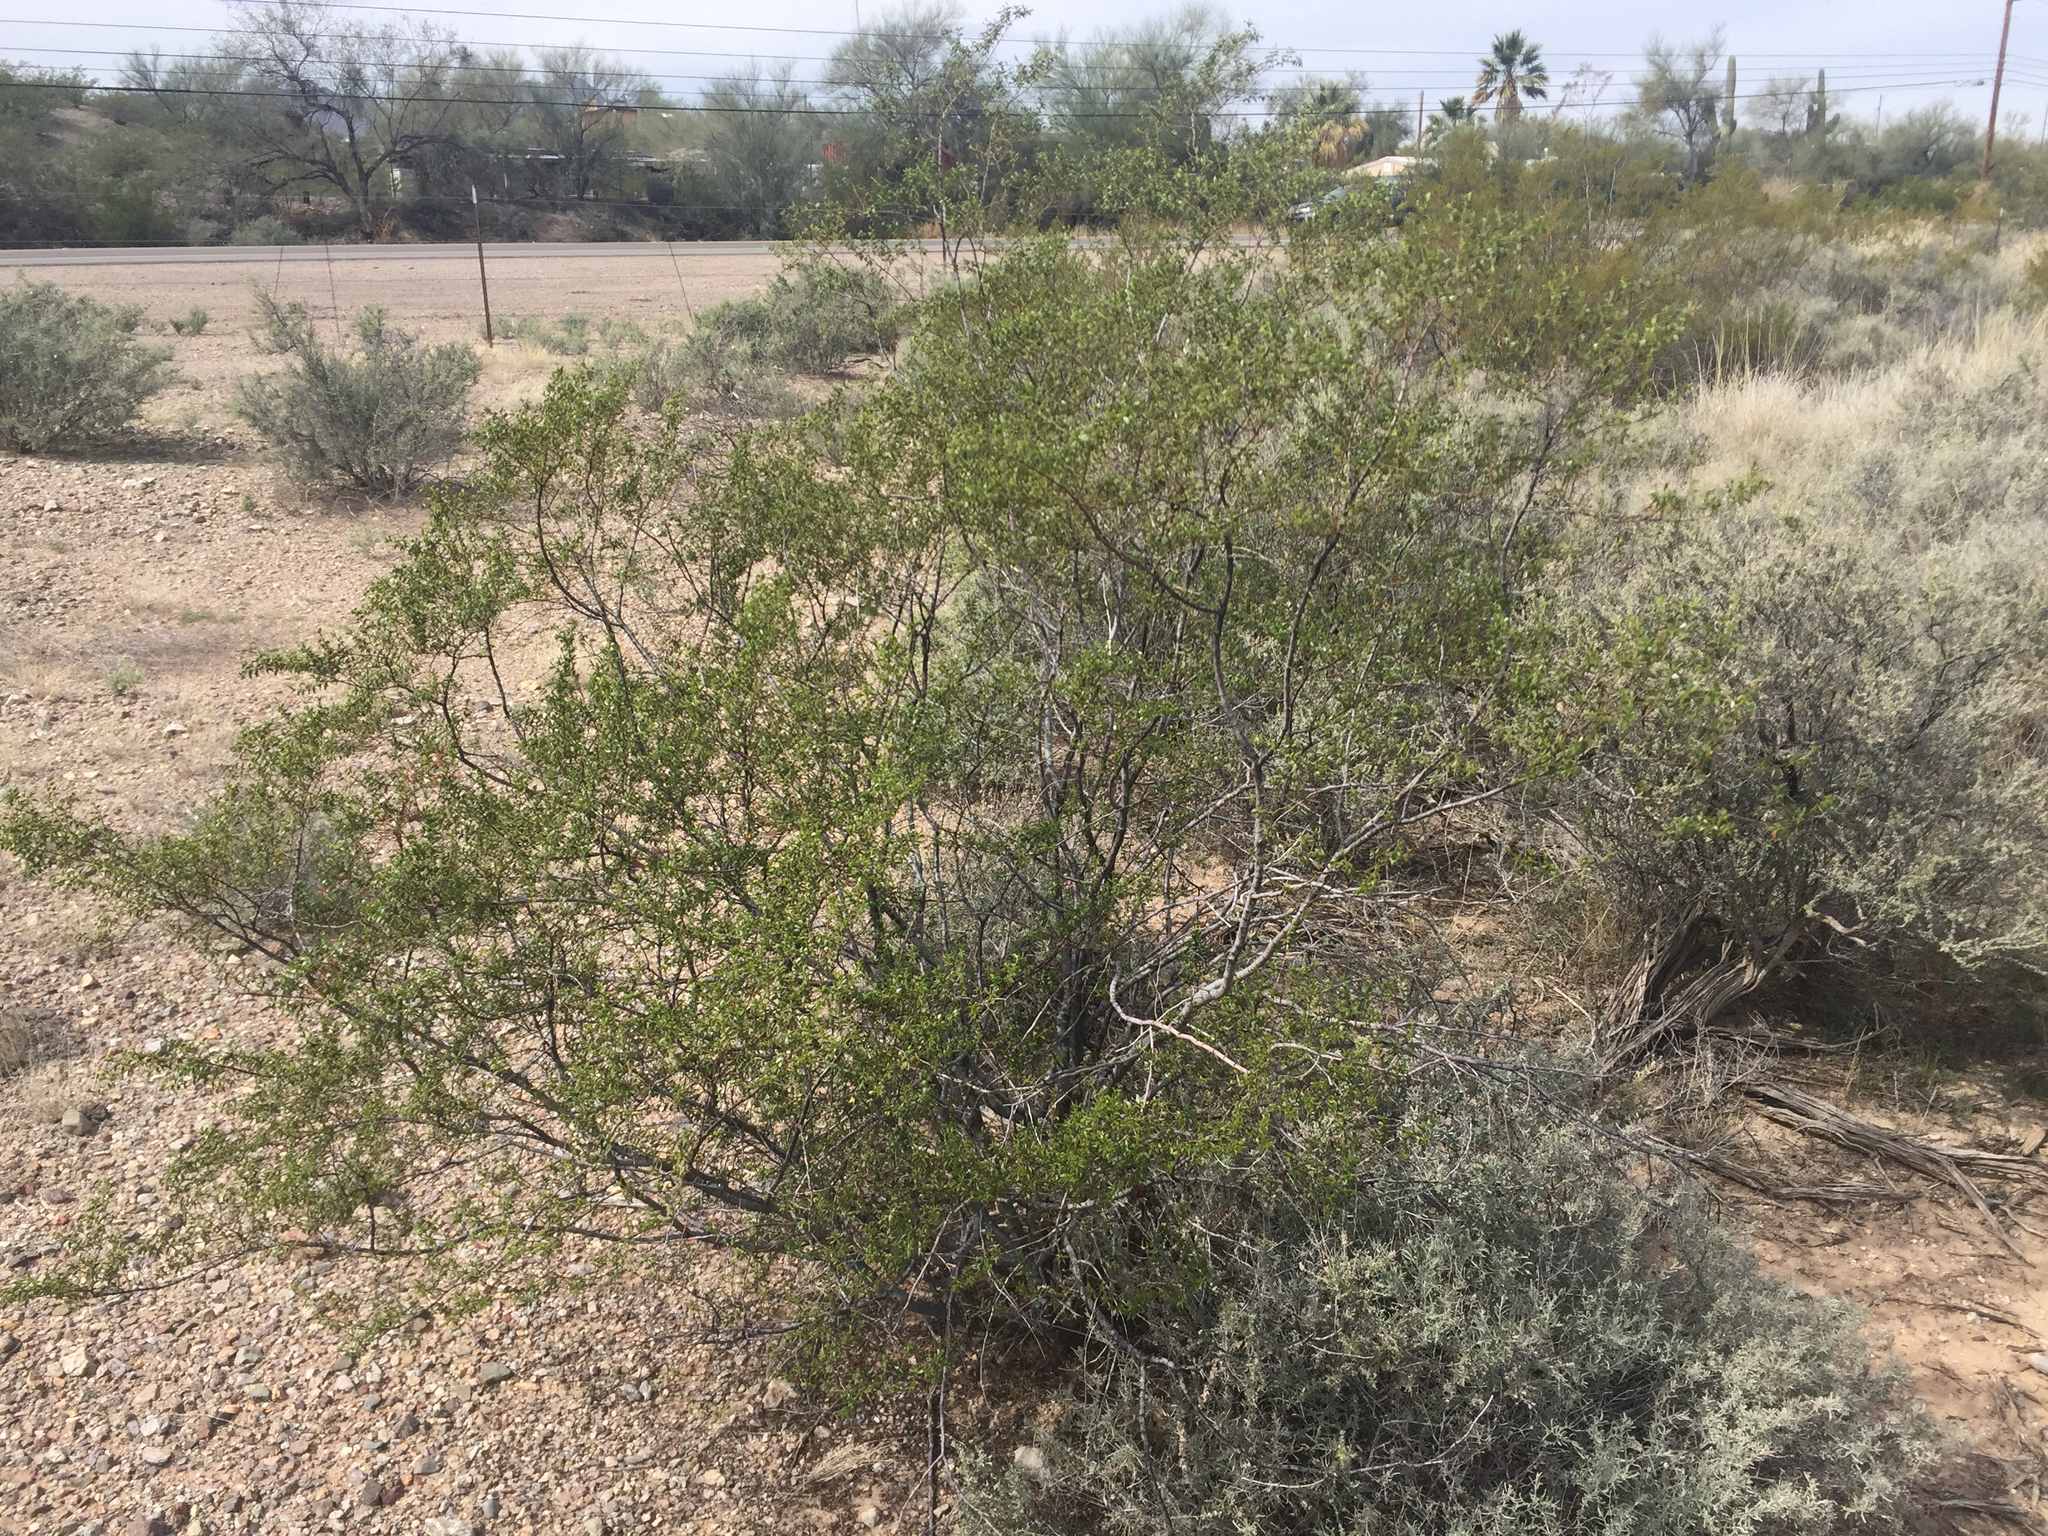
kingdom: Plantae
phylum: Tracheophyta
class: Magnoliopsida
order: Zygophyllales
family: Zygophyllaceae
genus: Larrea
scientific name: Larrea tridentata
